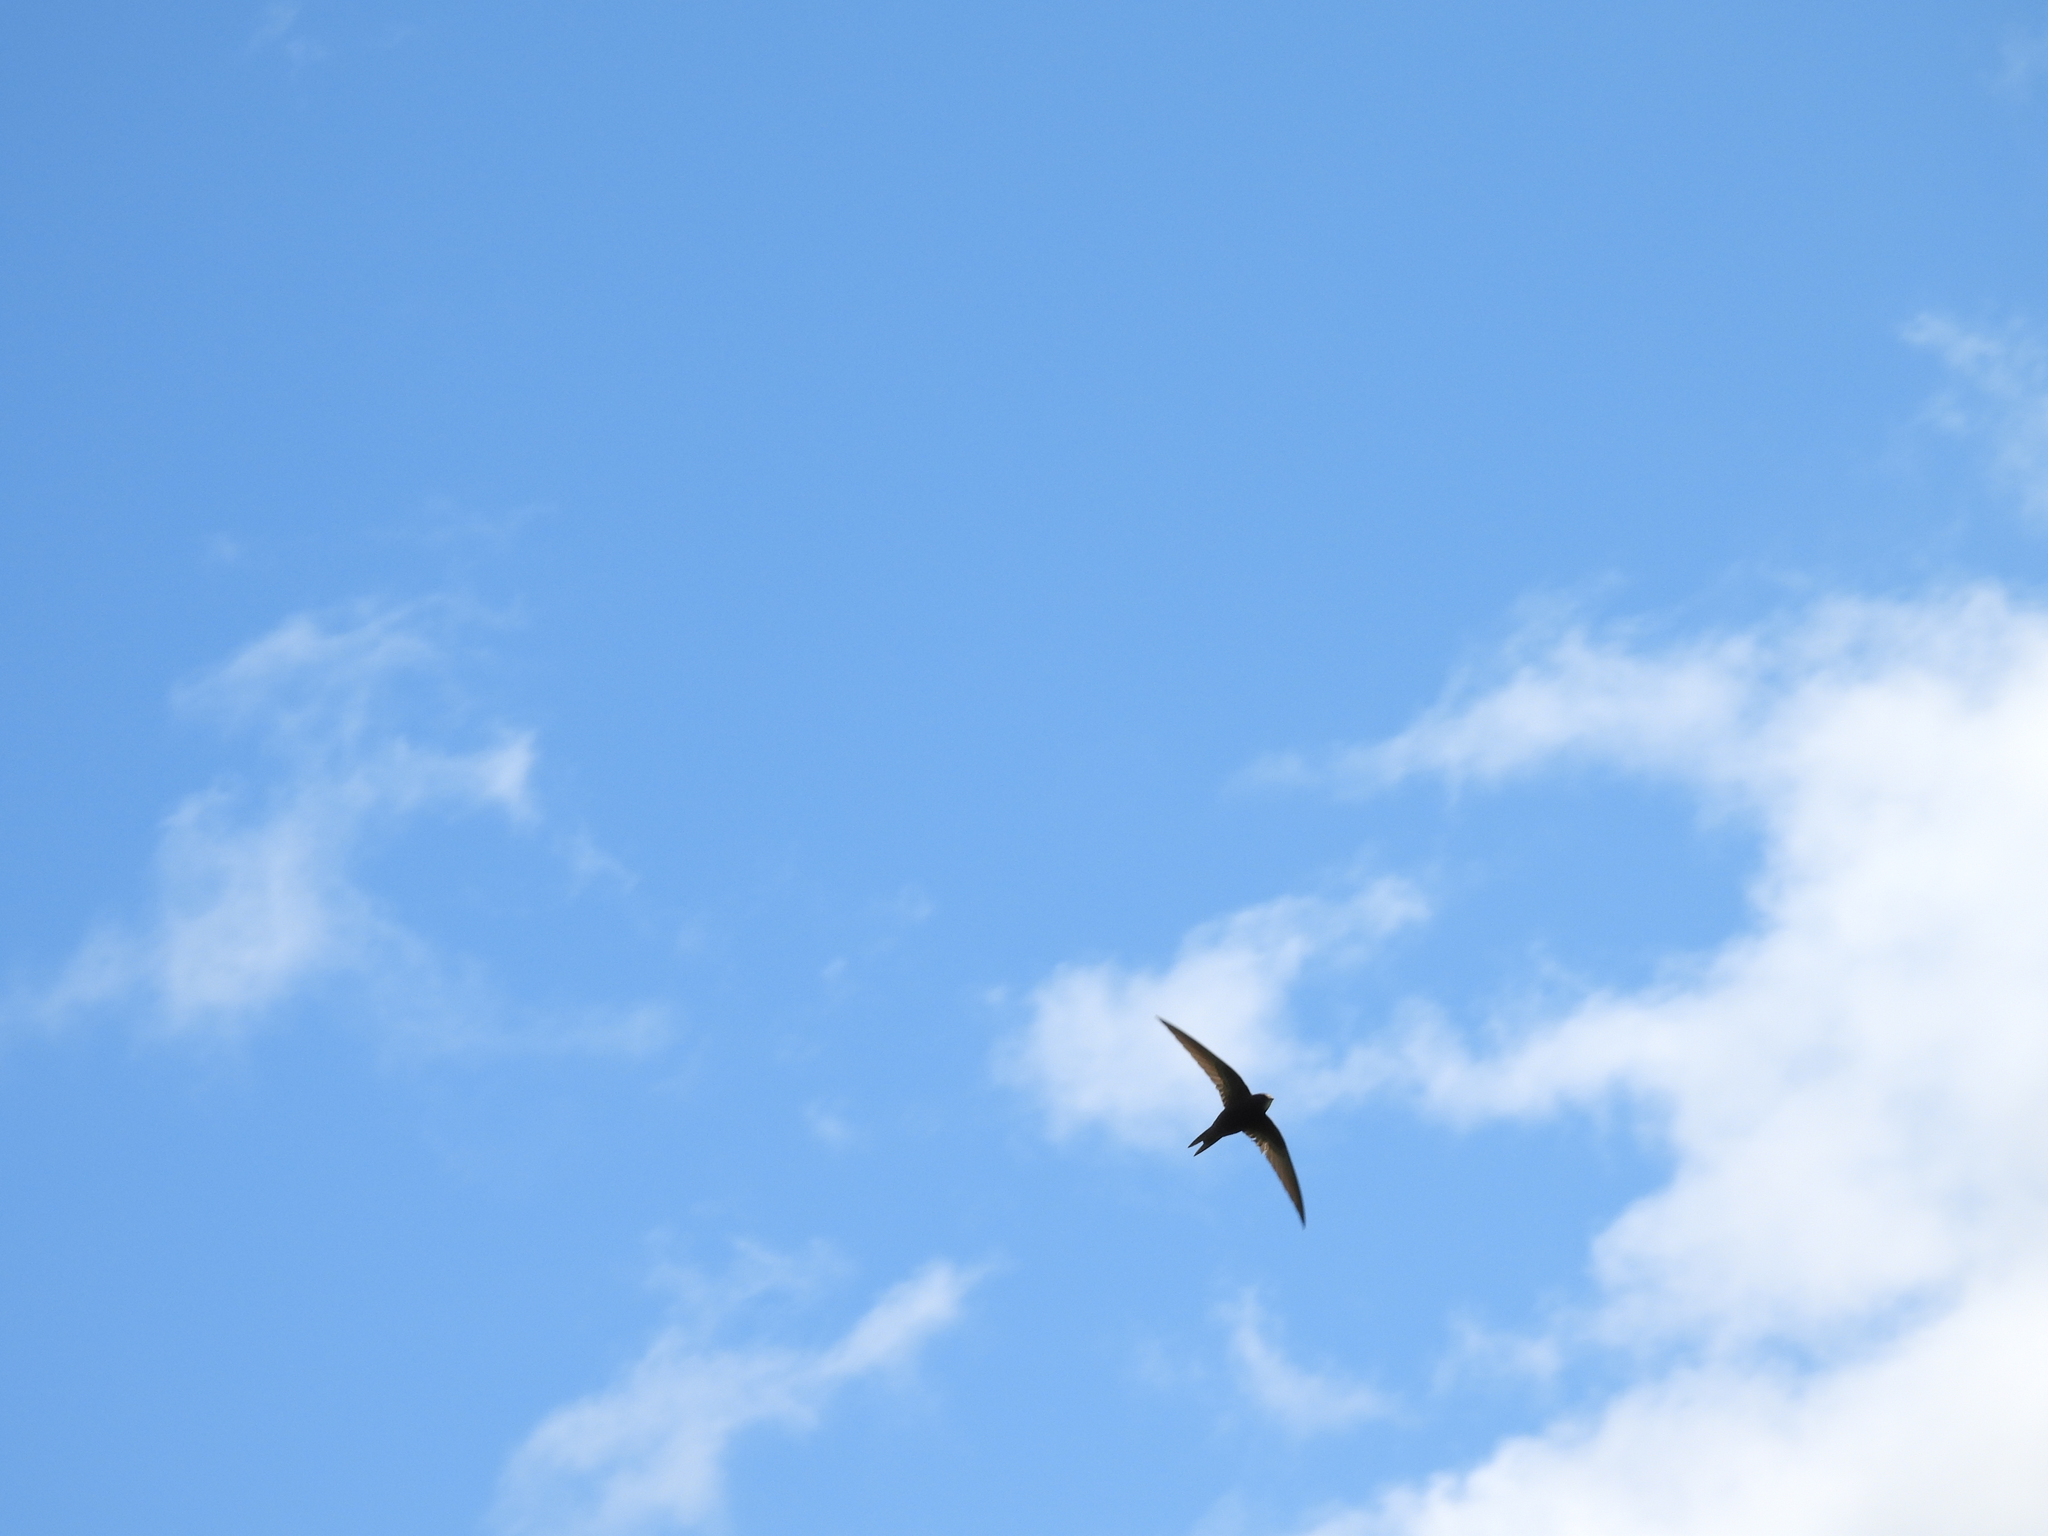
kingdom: Animalia
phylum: Chordata
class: Aves
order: Apodiformes
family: Apodidae
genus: Apus
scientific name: Apus apus
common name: Common swift
